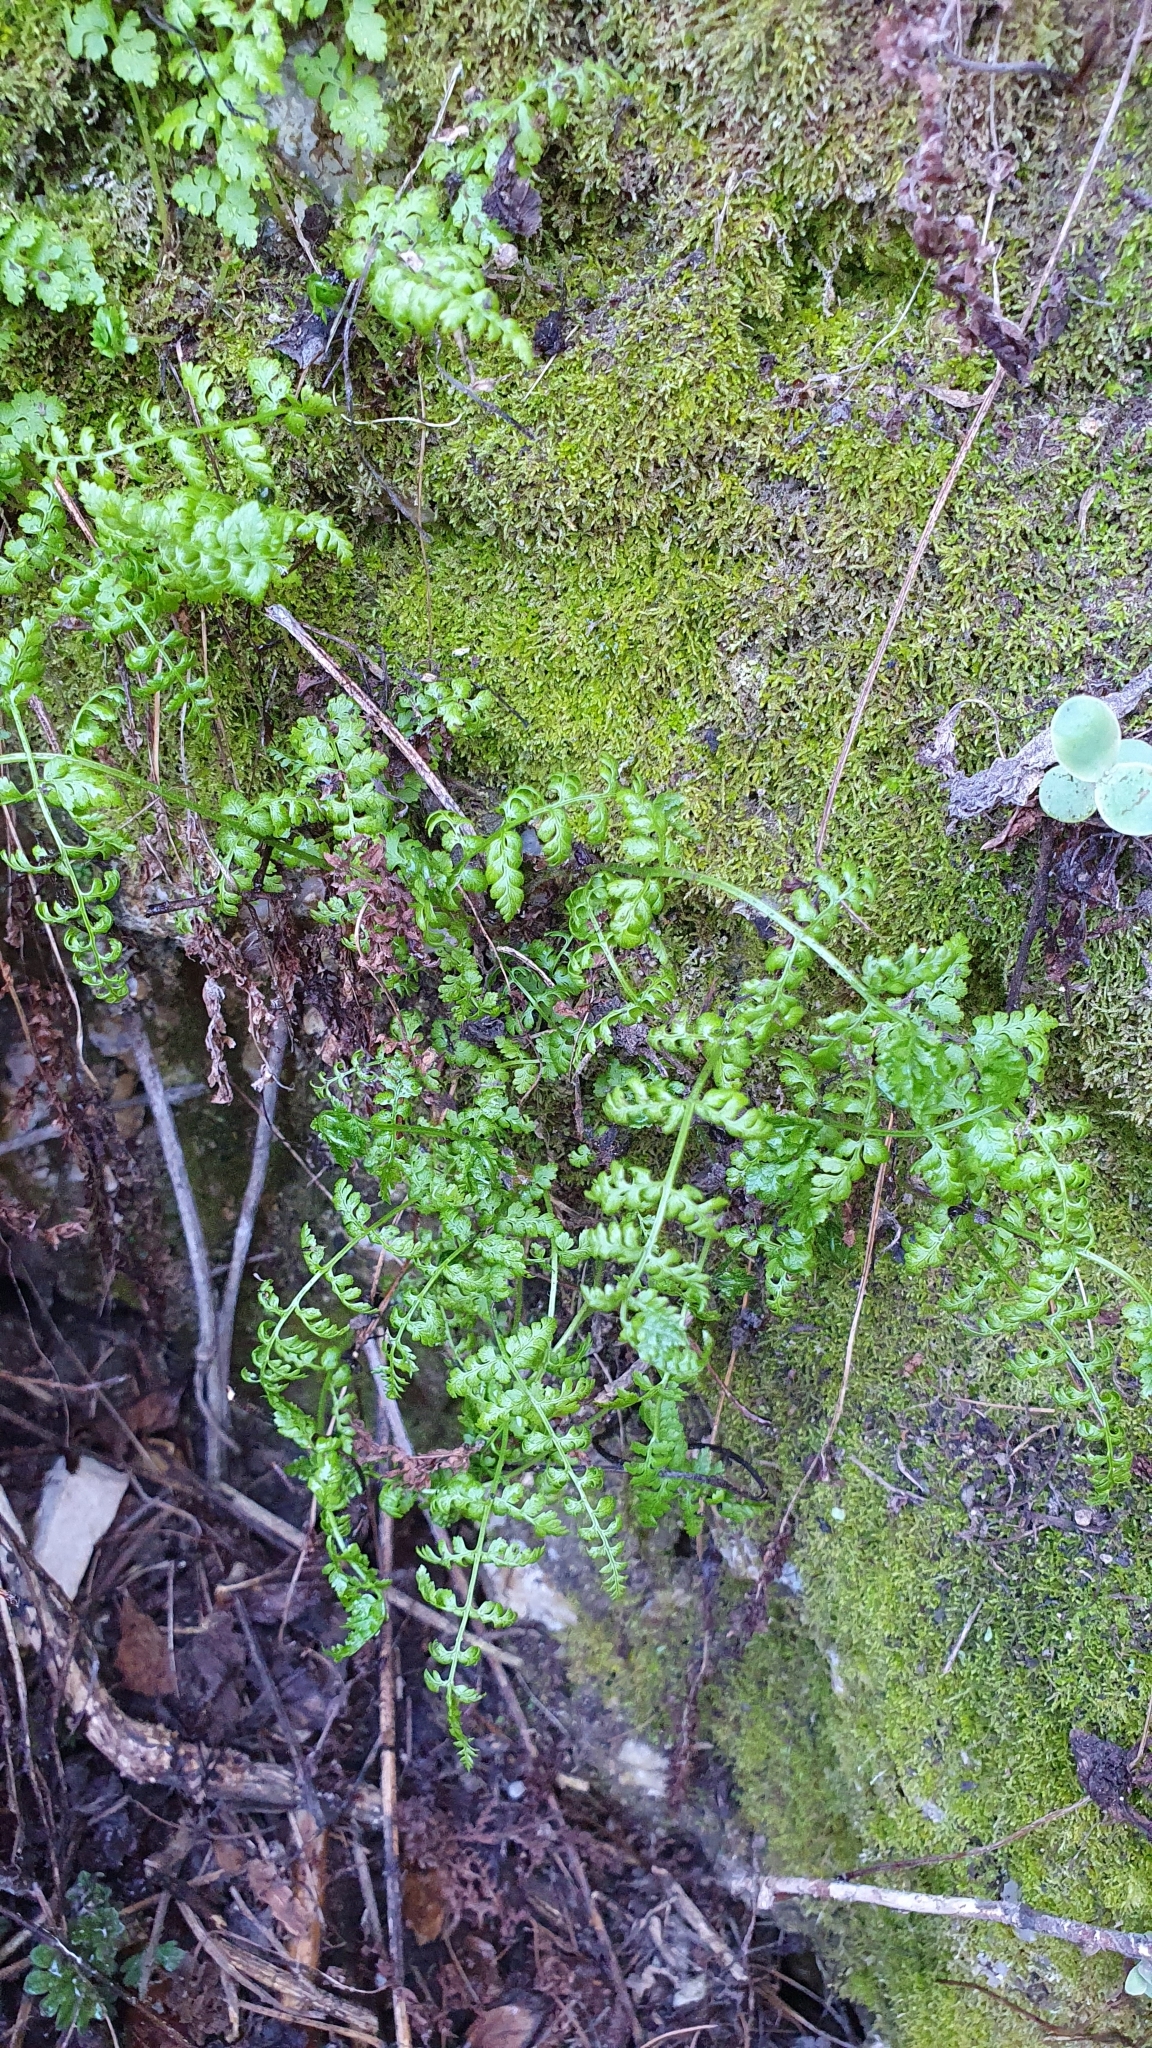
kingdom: Plantae
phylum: Tracheophyta
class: Polypodiopsida
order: Polypodiales
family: Cystopteridaceae
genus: Cystopteris
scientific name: Cystopteris fragilis
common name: Brittle bladder fern
